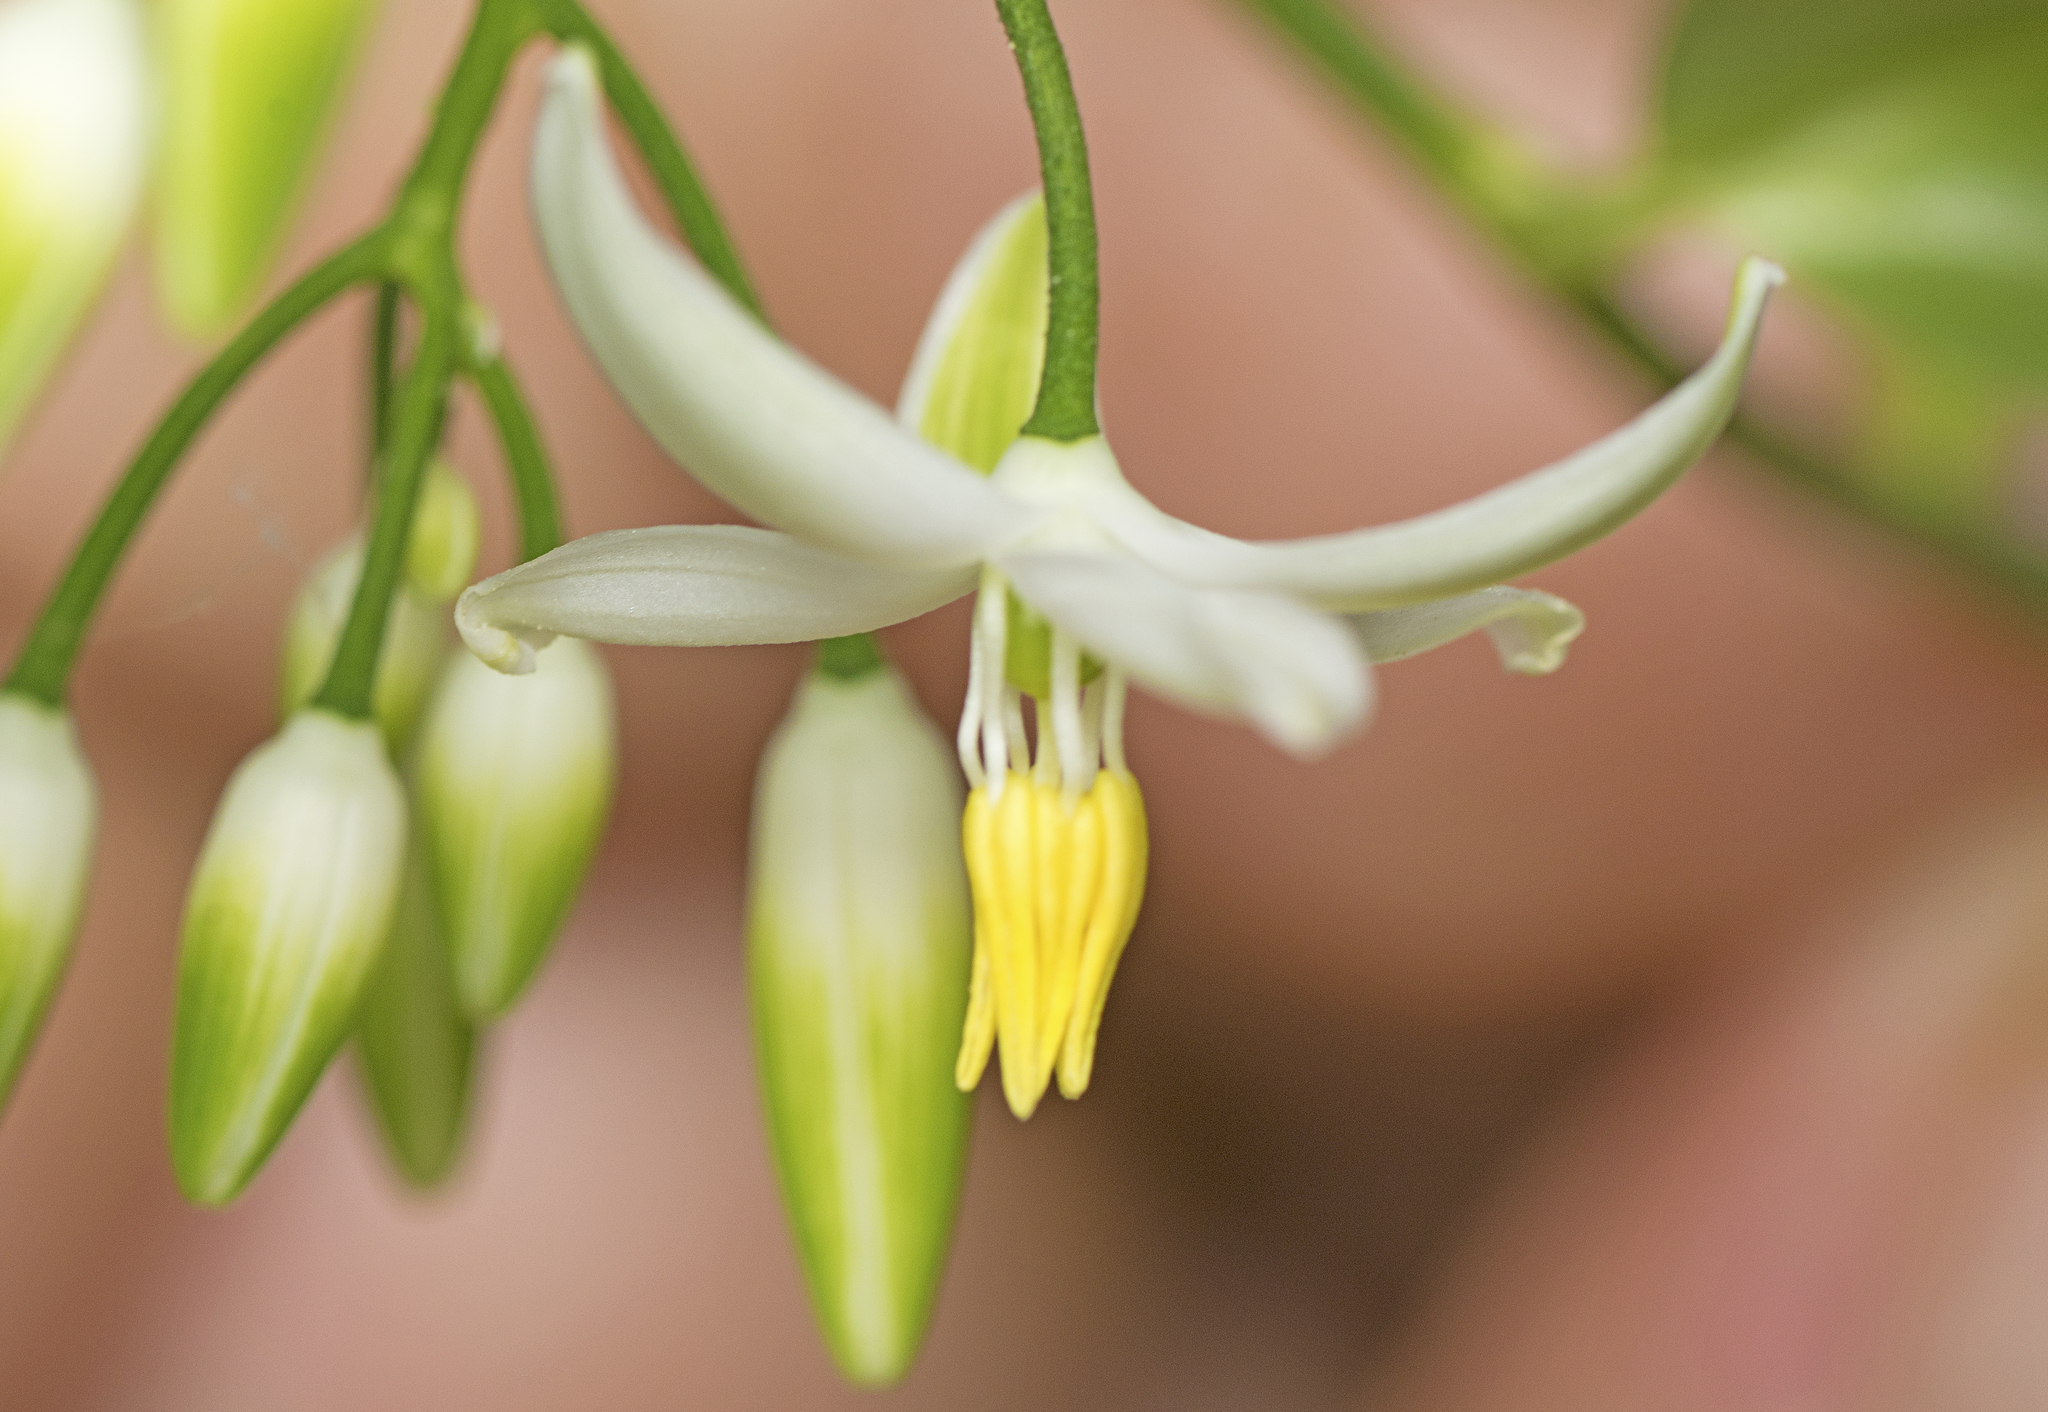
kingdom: Plantae
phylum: Tracheophyta
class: Liliopsida
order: Asparagales
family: Asphodelaceae
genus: Geitonoplesium
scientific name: Geitonoplesium cymosum
